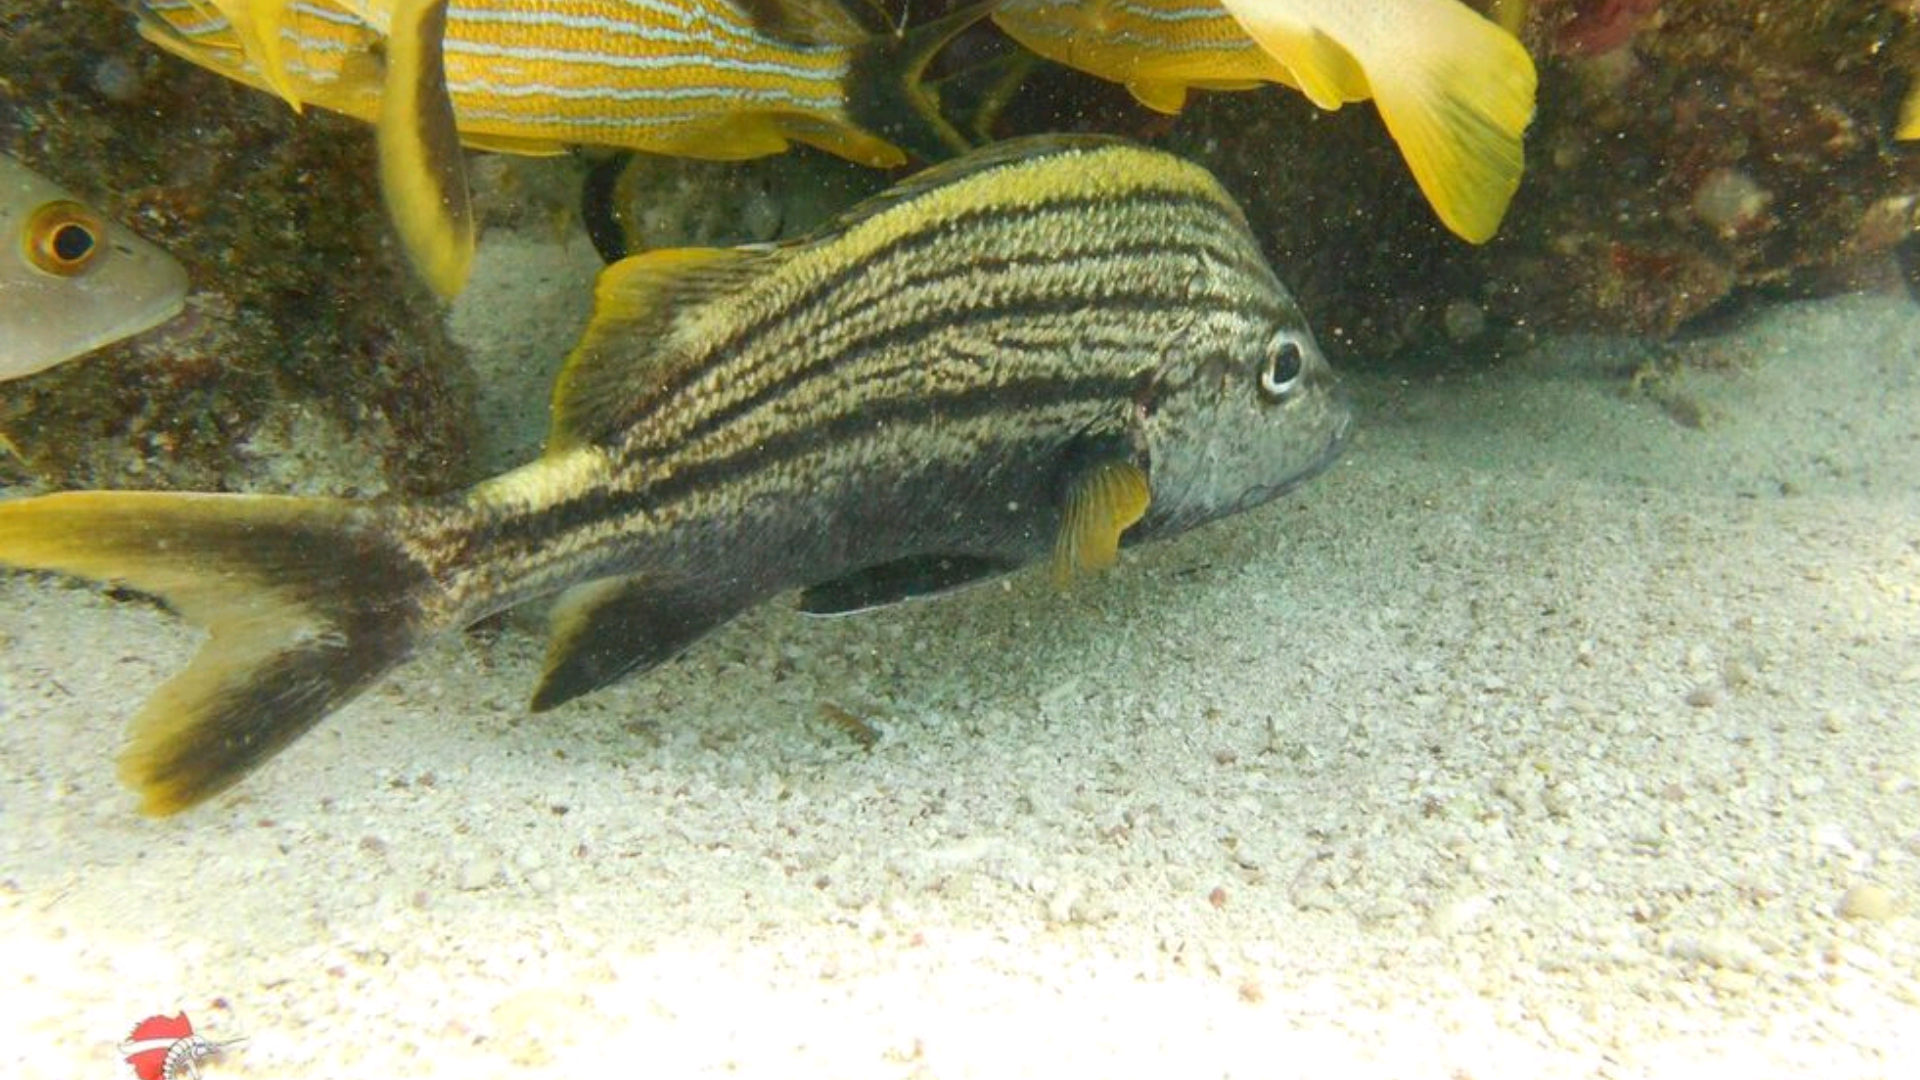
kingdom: Animalia
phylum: Chordata
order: Perciformes
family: Haemulidae
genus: Haemulon
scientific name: Haemulon macrostomum
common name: Spanish grunt
